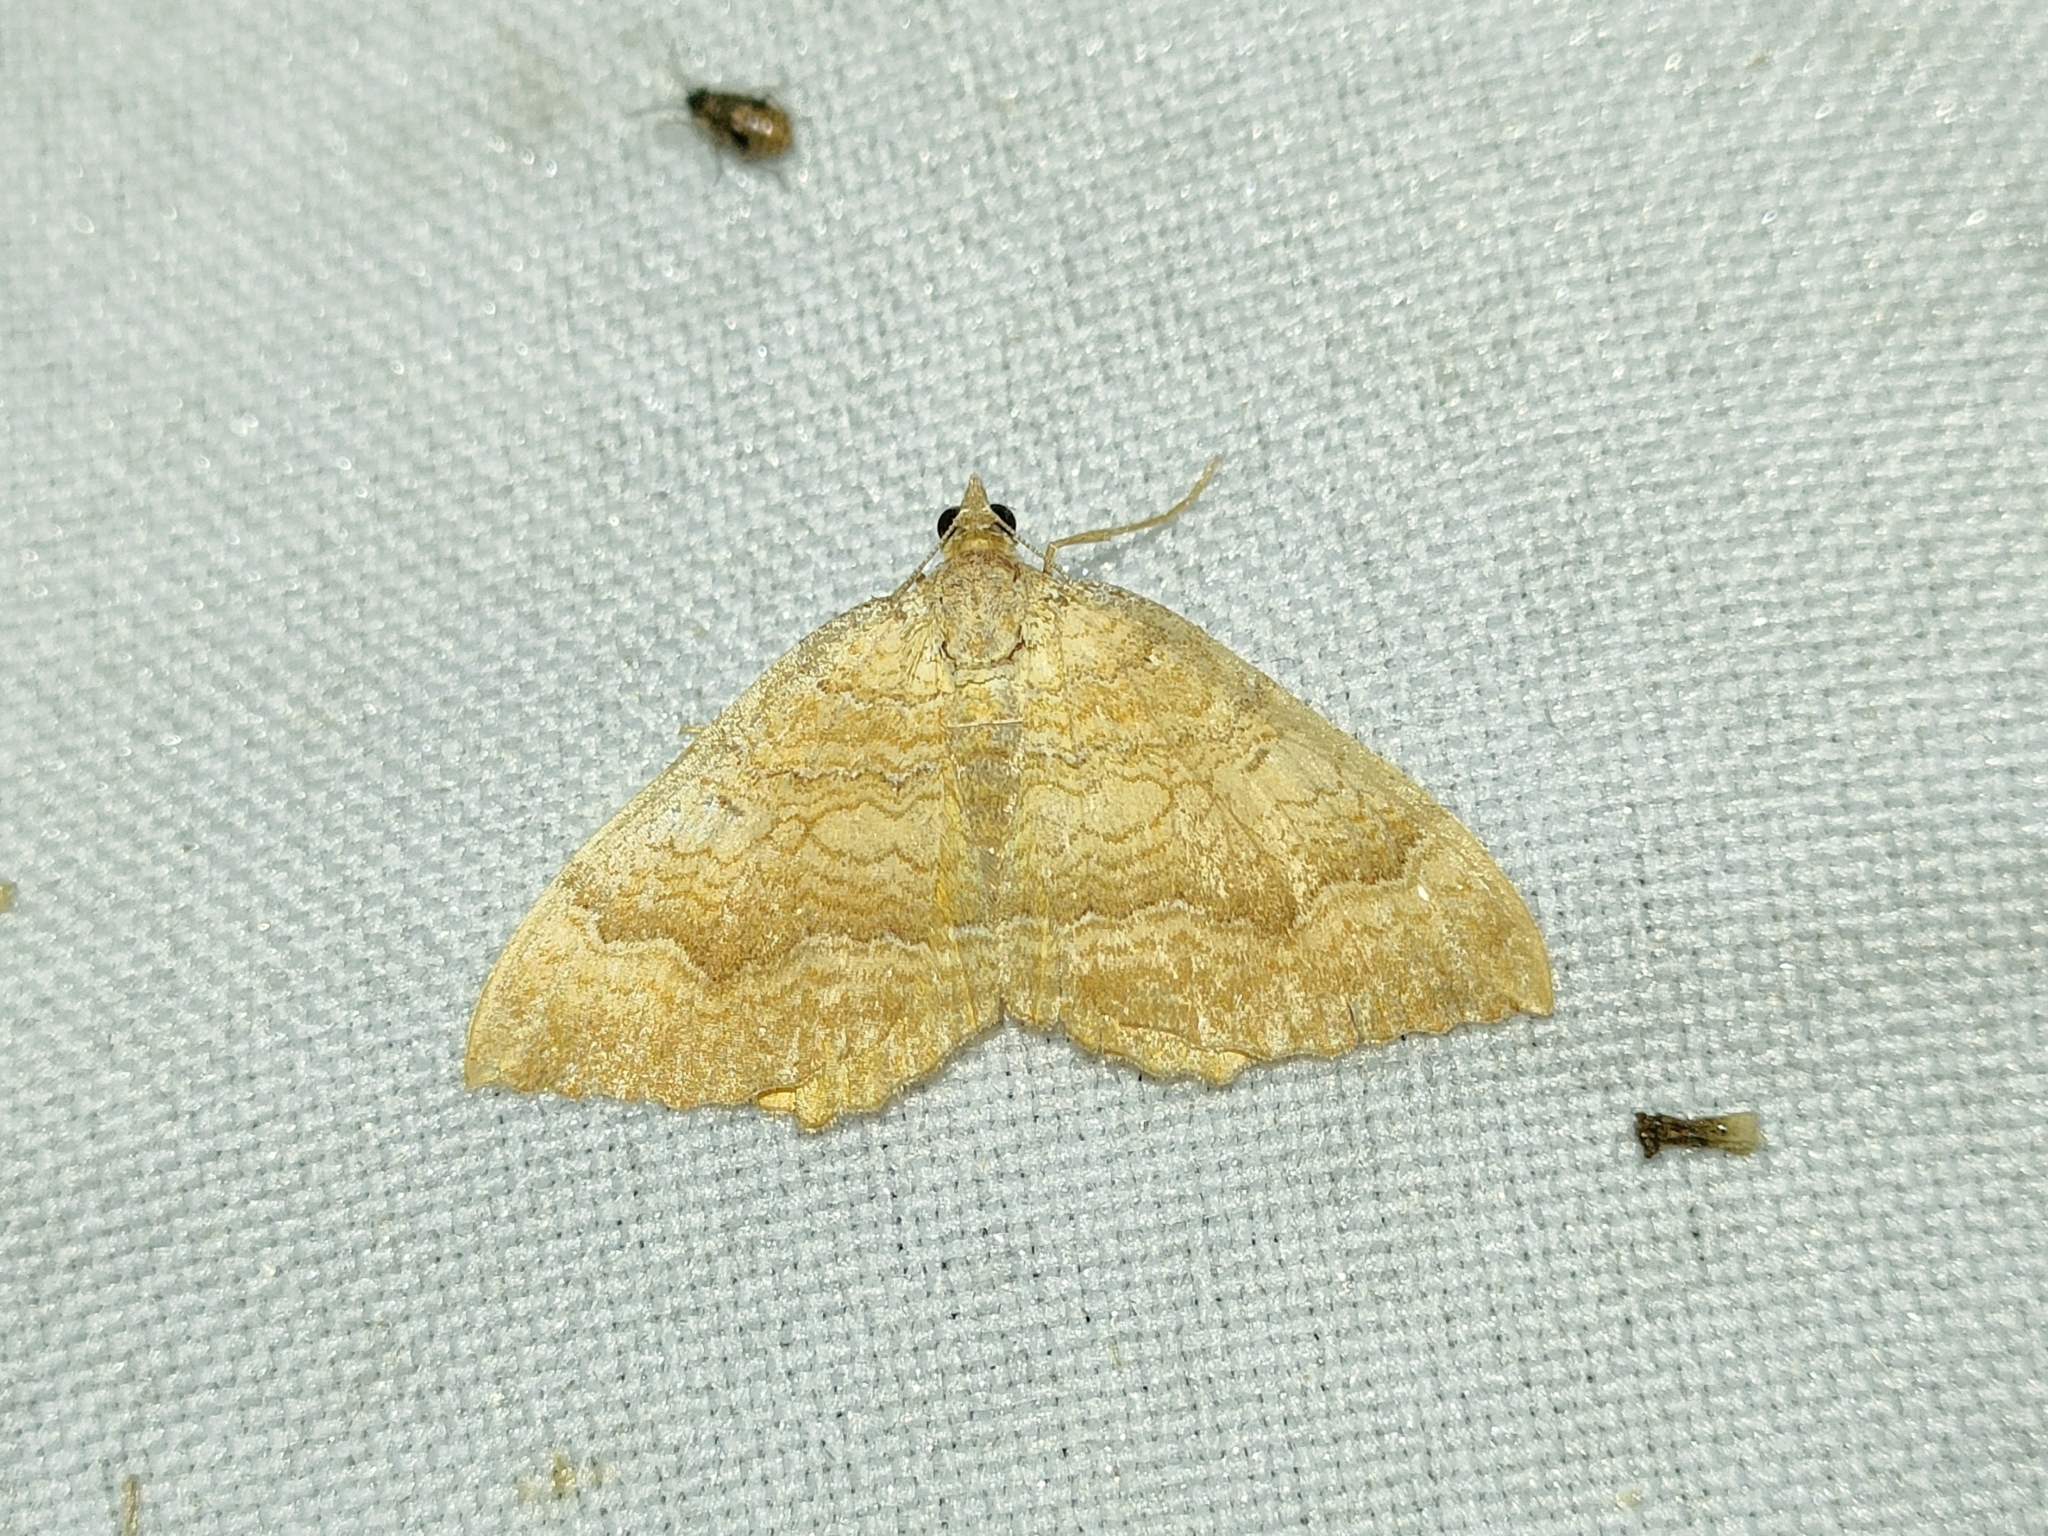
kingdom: Animalia
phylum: Arthropoda
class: Insecta
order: Lepidoptera
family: Geometridae
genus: Camptogramma
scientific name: Camptogramma bilineata
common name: Yellow shell
